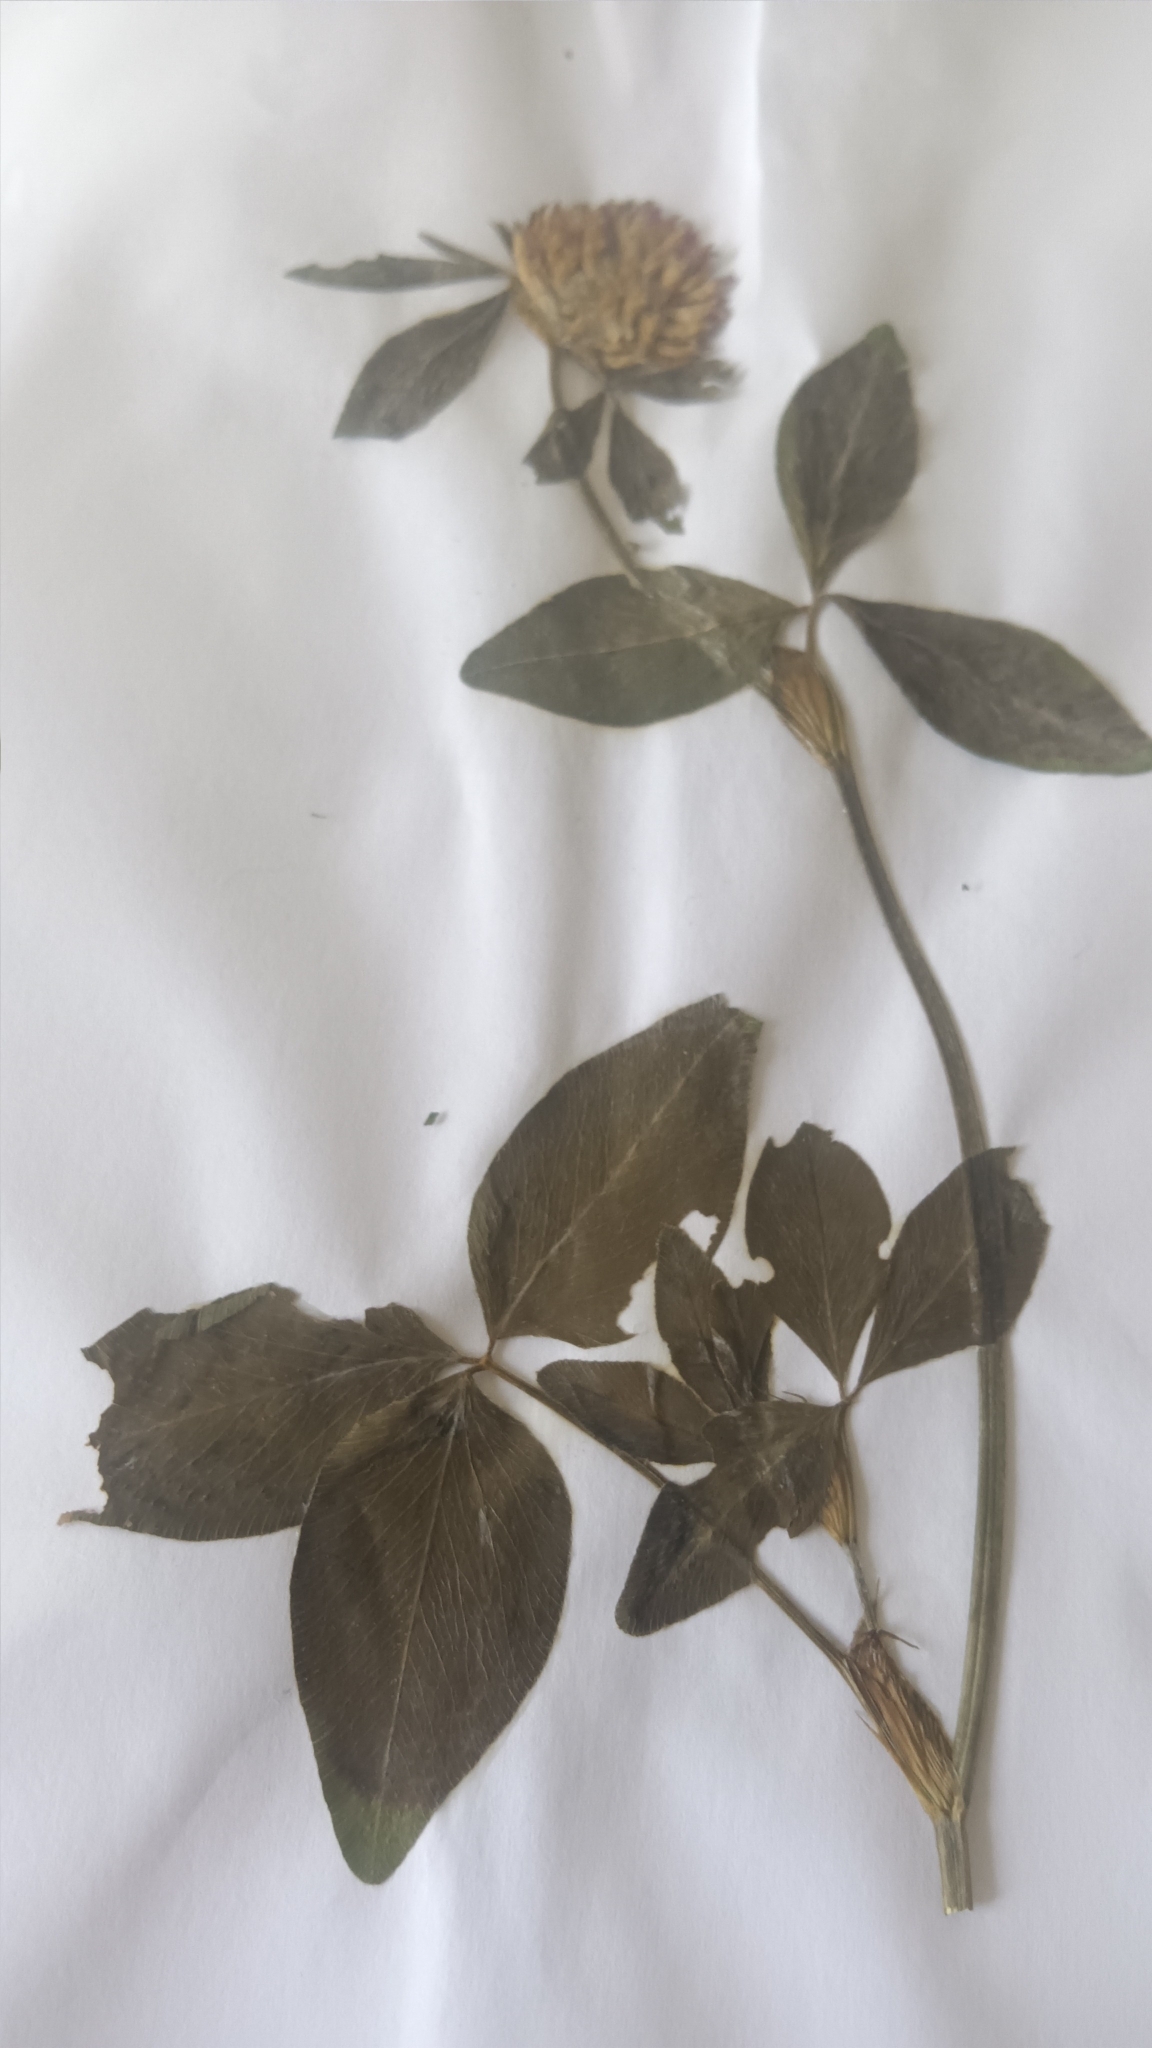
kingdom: Plantae
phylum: Tracheophyta
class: Magnoliopsida
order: Fabales
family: Fabaceae
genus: Trifolium
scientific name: Trifolium pratense
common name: Red clover
